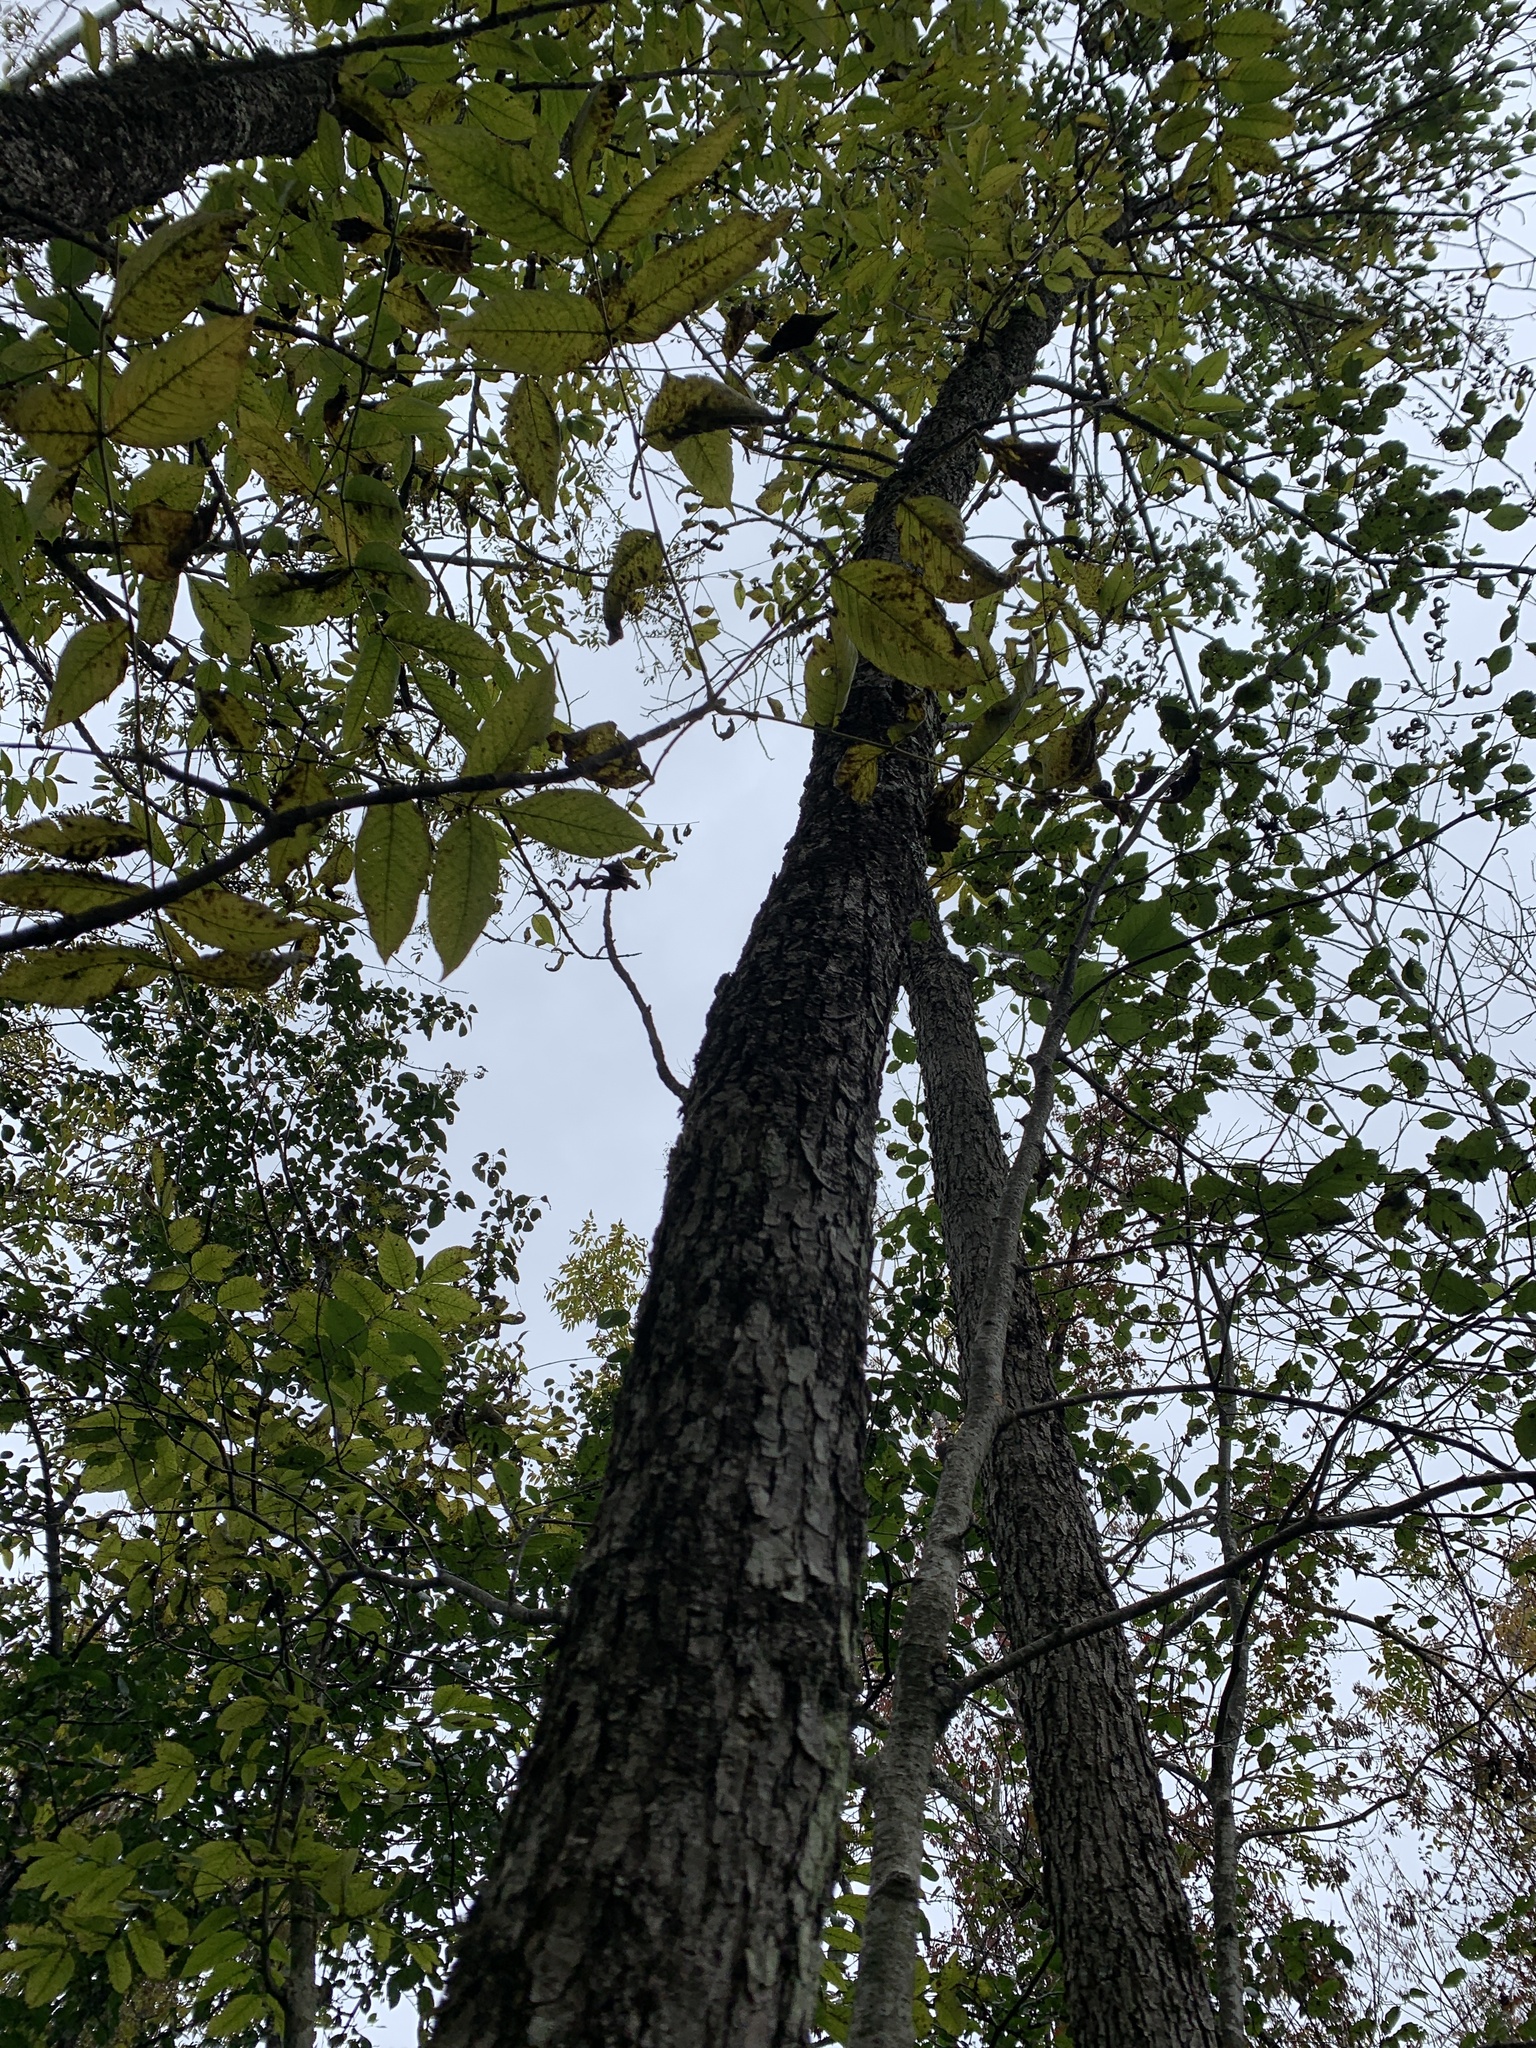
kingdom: Plantae
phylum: Tracheophyta
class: Magnoliopsida
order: Lamiales
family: Oleaceae
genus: Fraxinus
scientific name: Fraxinus nigra
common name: Black ash
